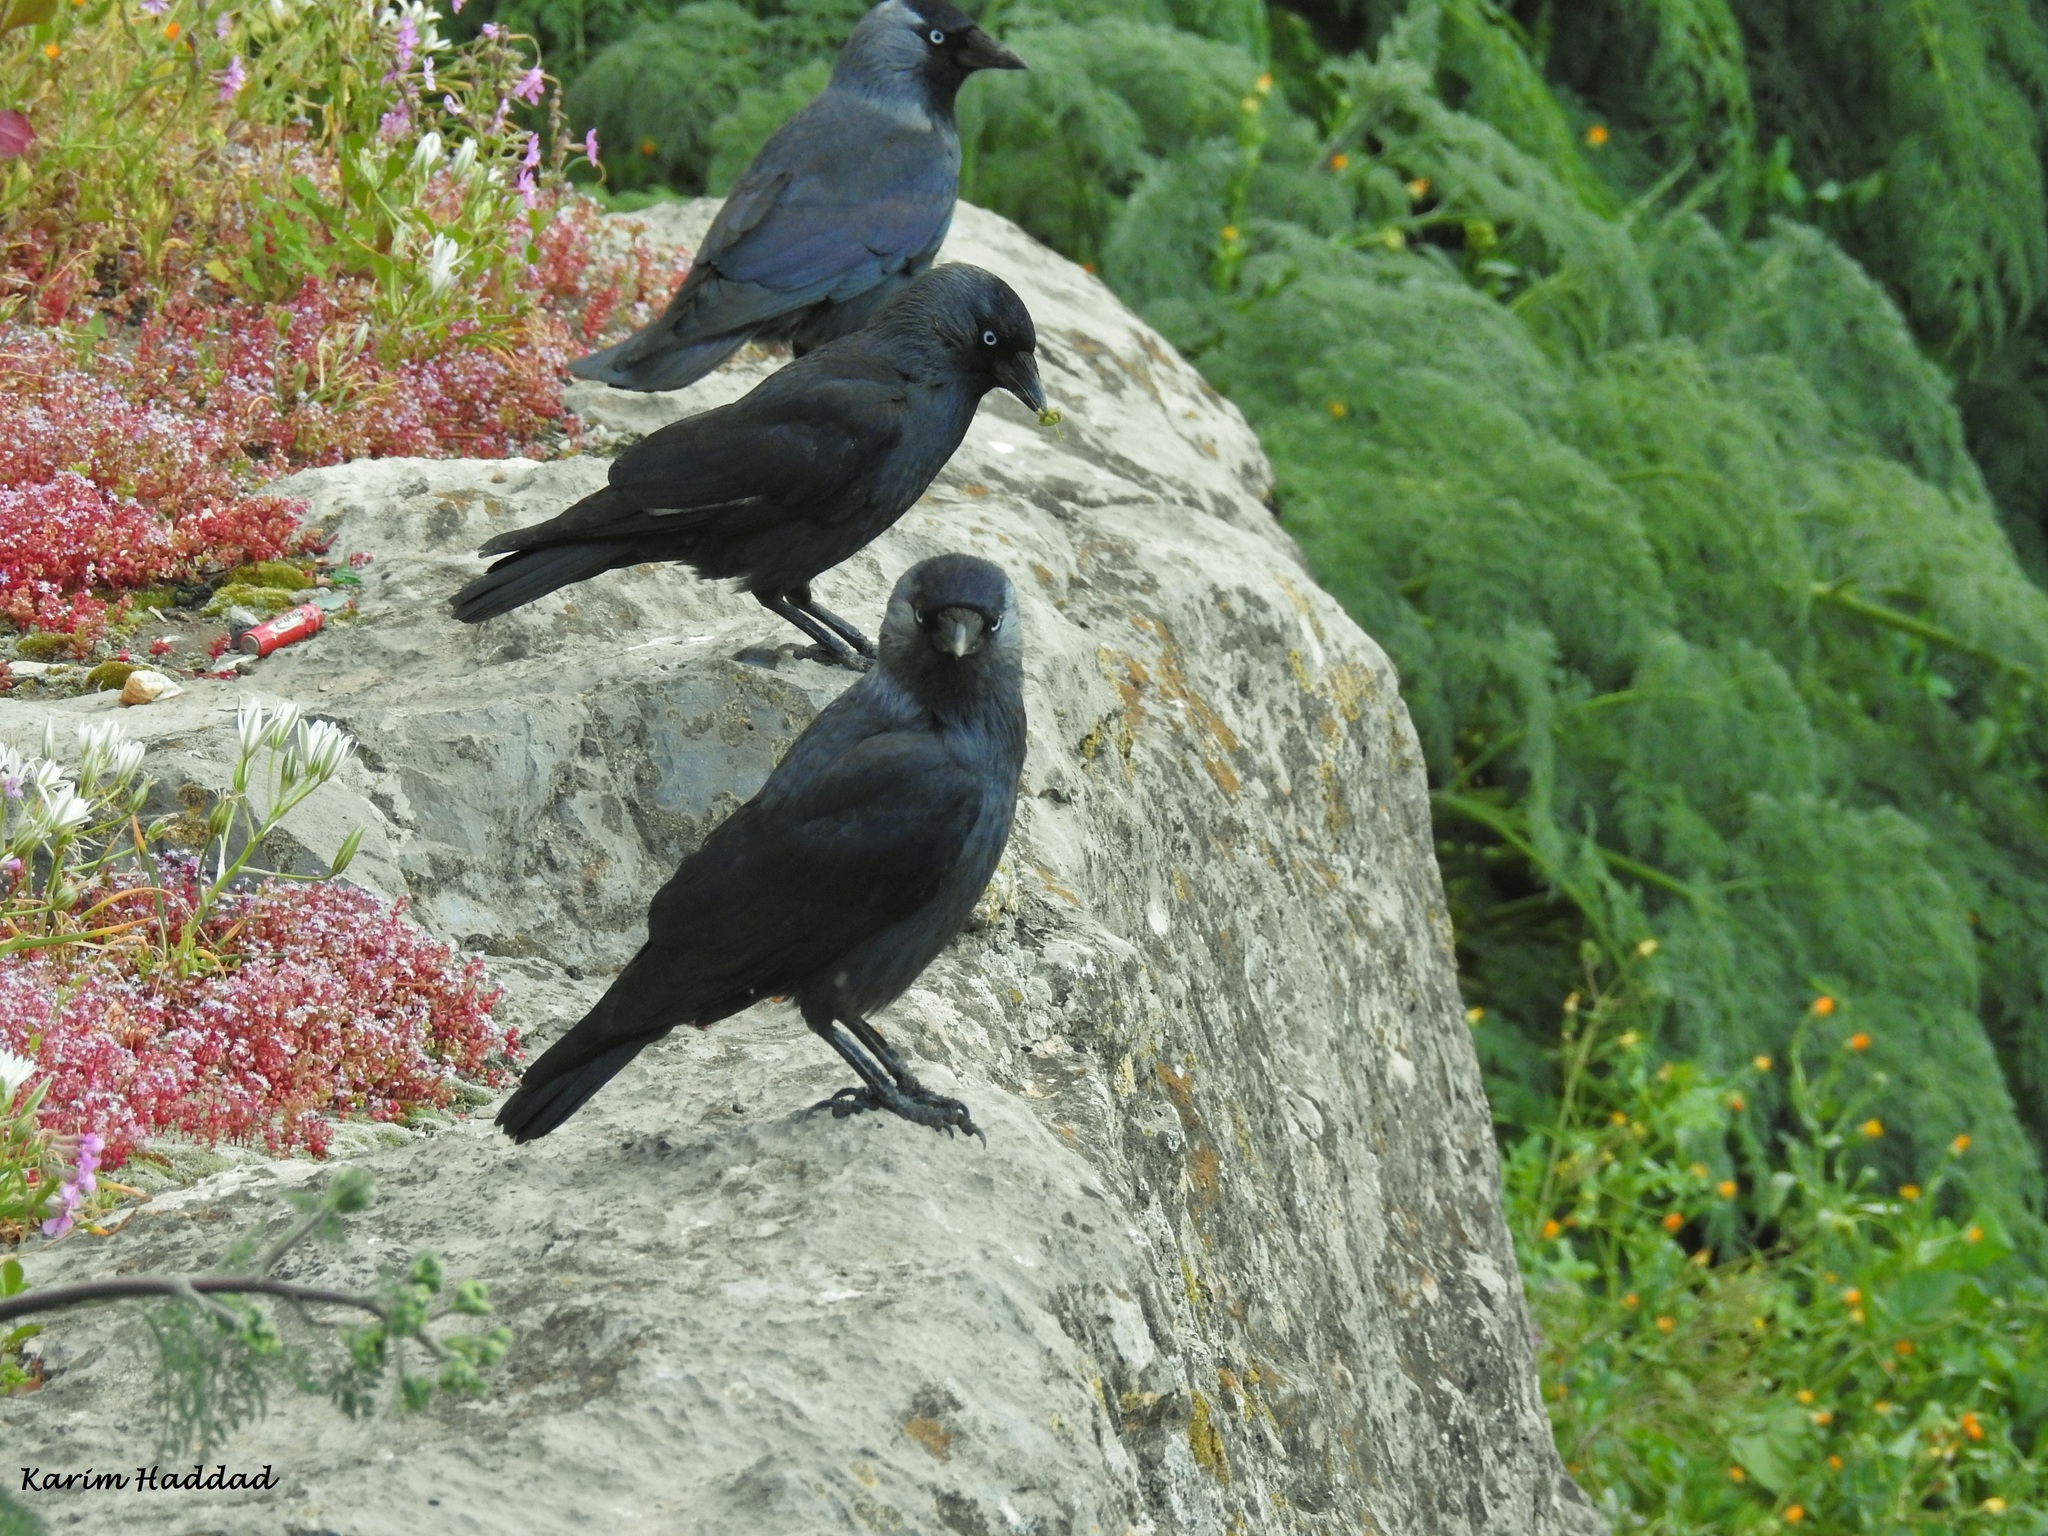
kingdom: Animalia
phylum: Chordata
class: Aves
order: Passeriformes
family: Corvidae
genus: Coloeus
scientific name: Coloeus monedula
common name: Western jackdaw
